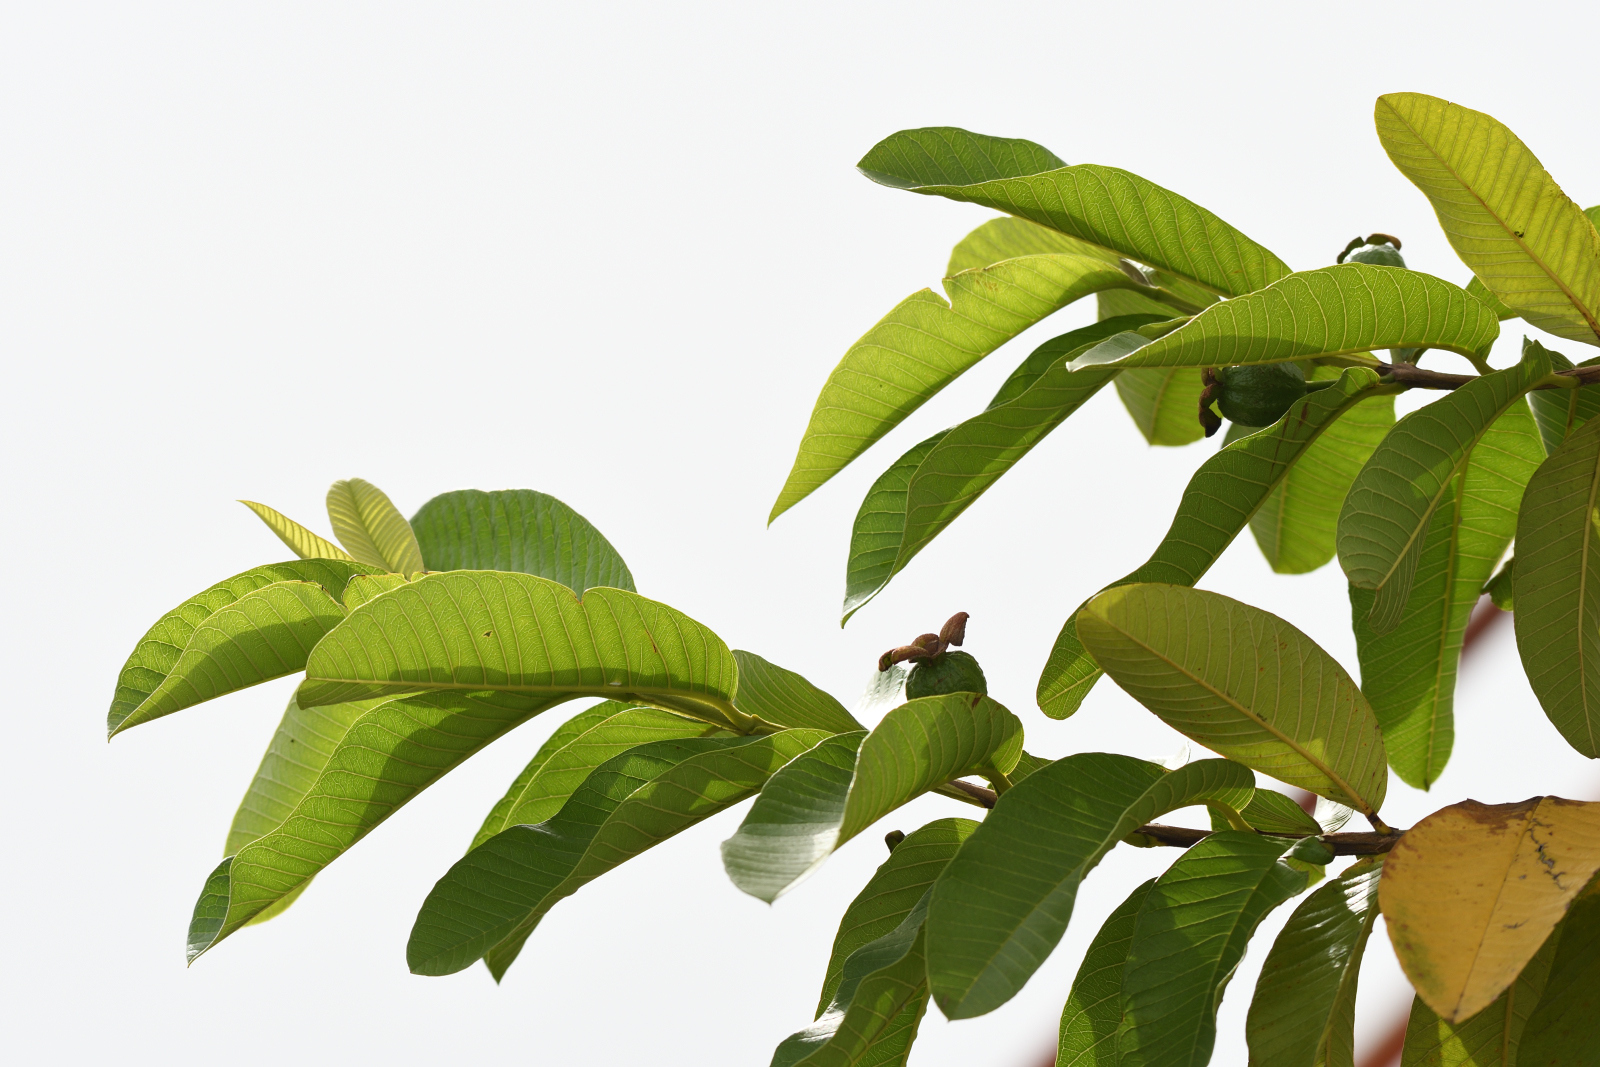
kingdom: Plantae
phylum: Tracheophyta
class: Magnoliopsida
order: Myrtales
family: Myrtaceae
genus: Psidium
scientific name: Psidium guajava
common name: Guava
